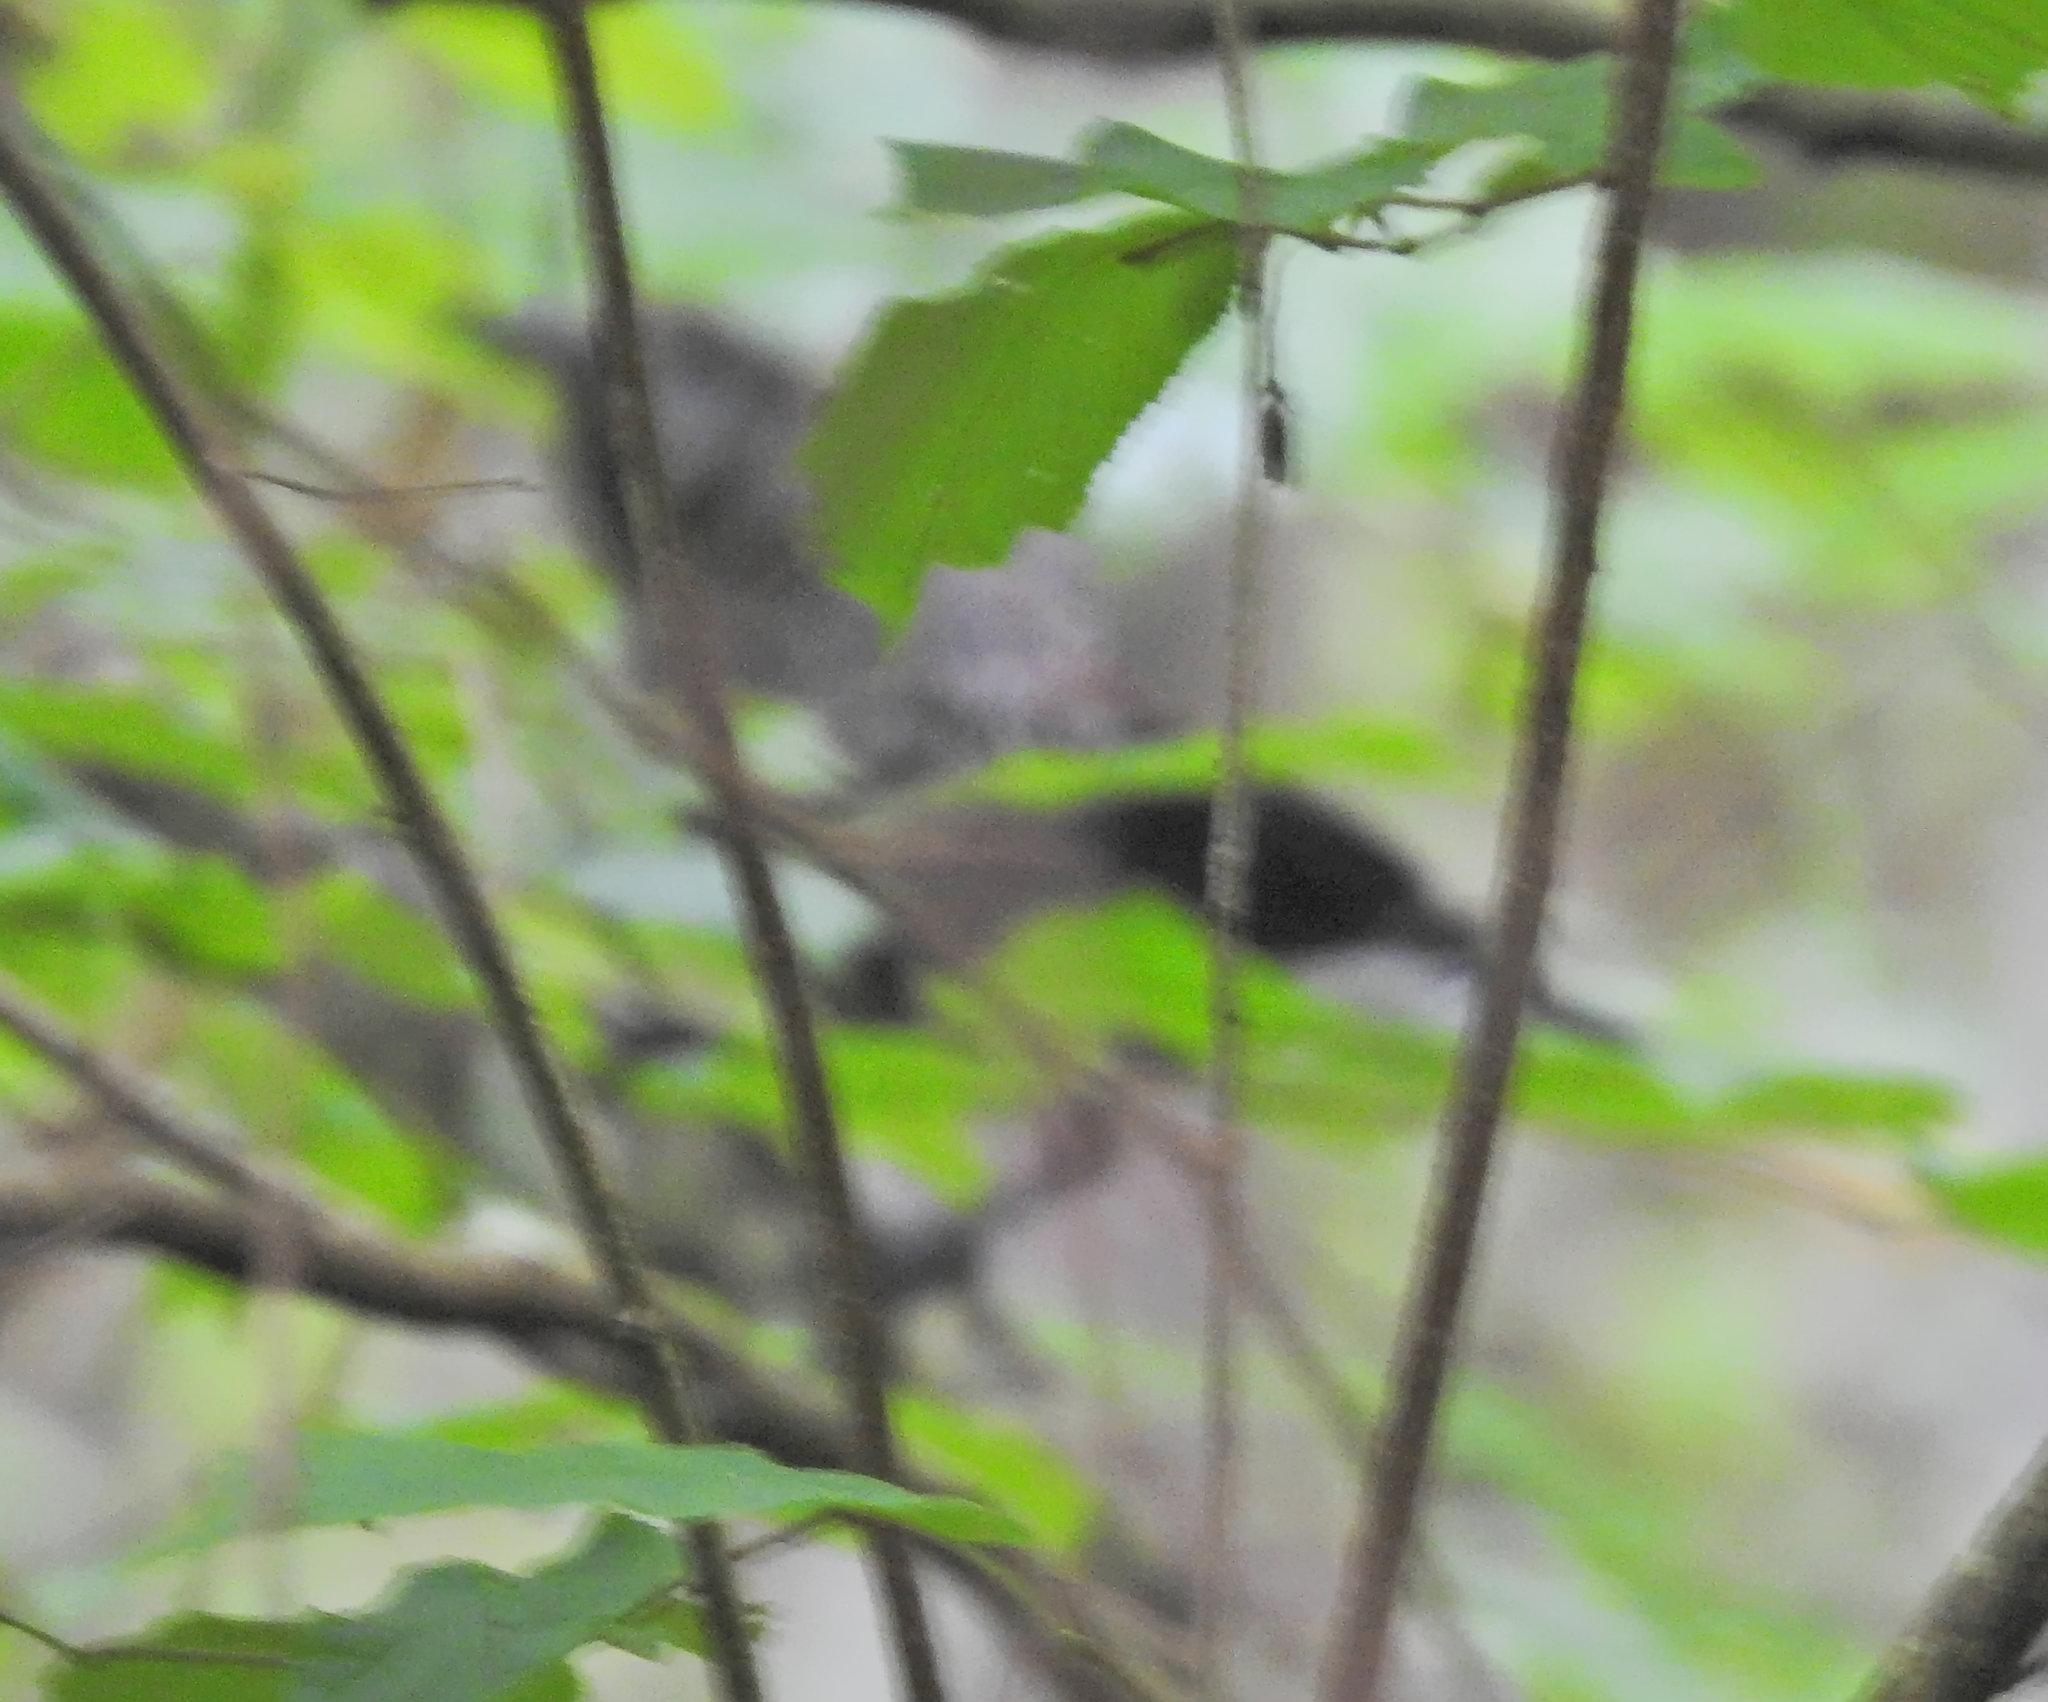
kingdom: Animalia
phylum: Chordata
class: Aves
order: Passeriformes
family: Corvidae
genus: Nucifraga
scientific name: Nucifraga caryocatactes
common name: Spotted nutcracker
